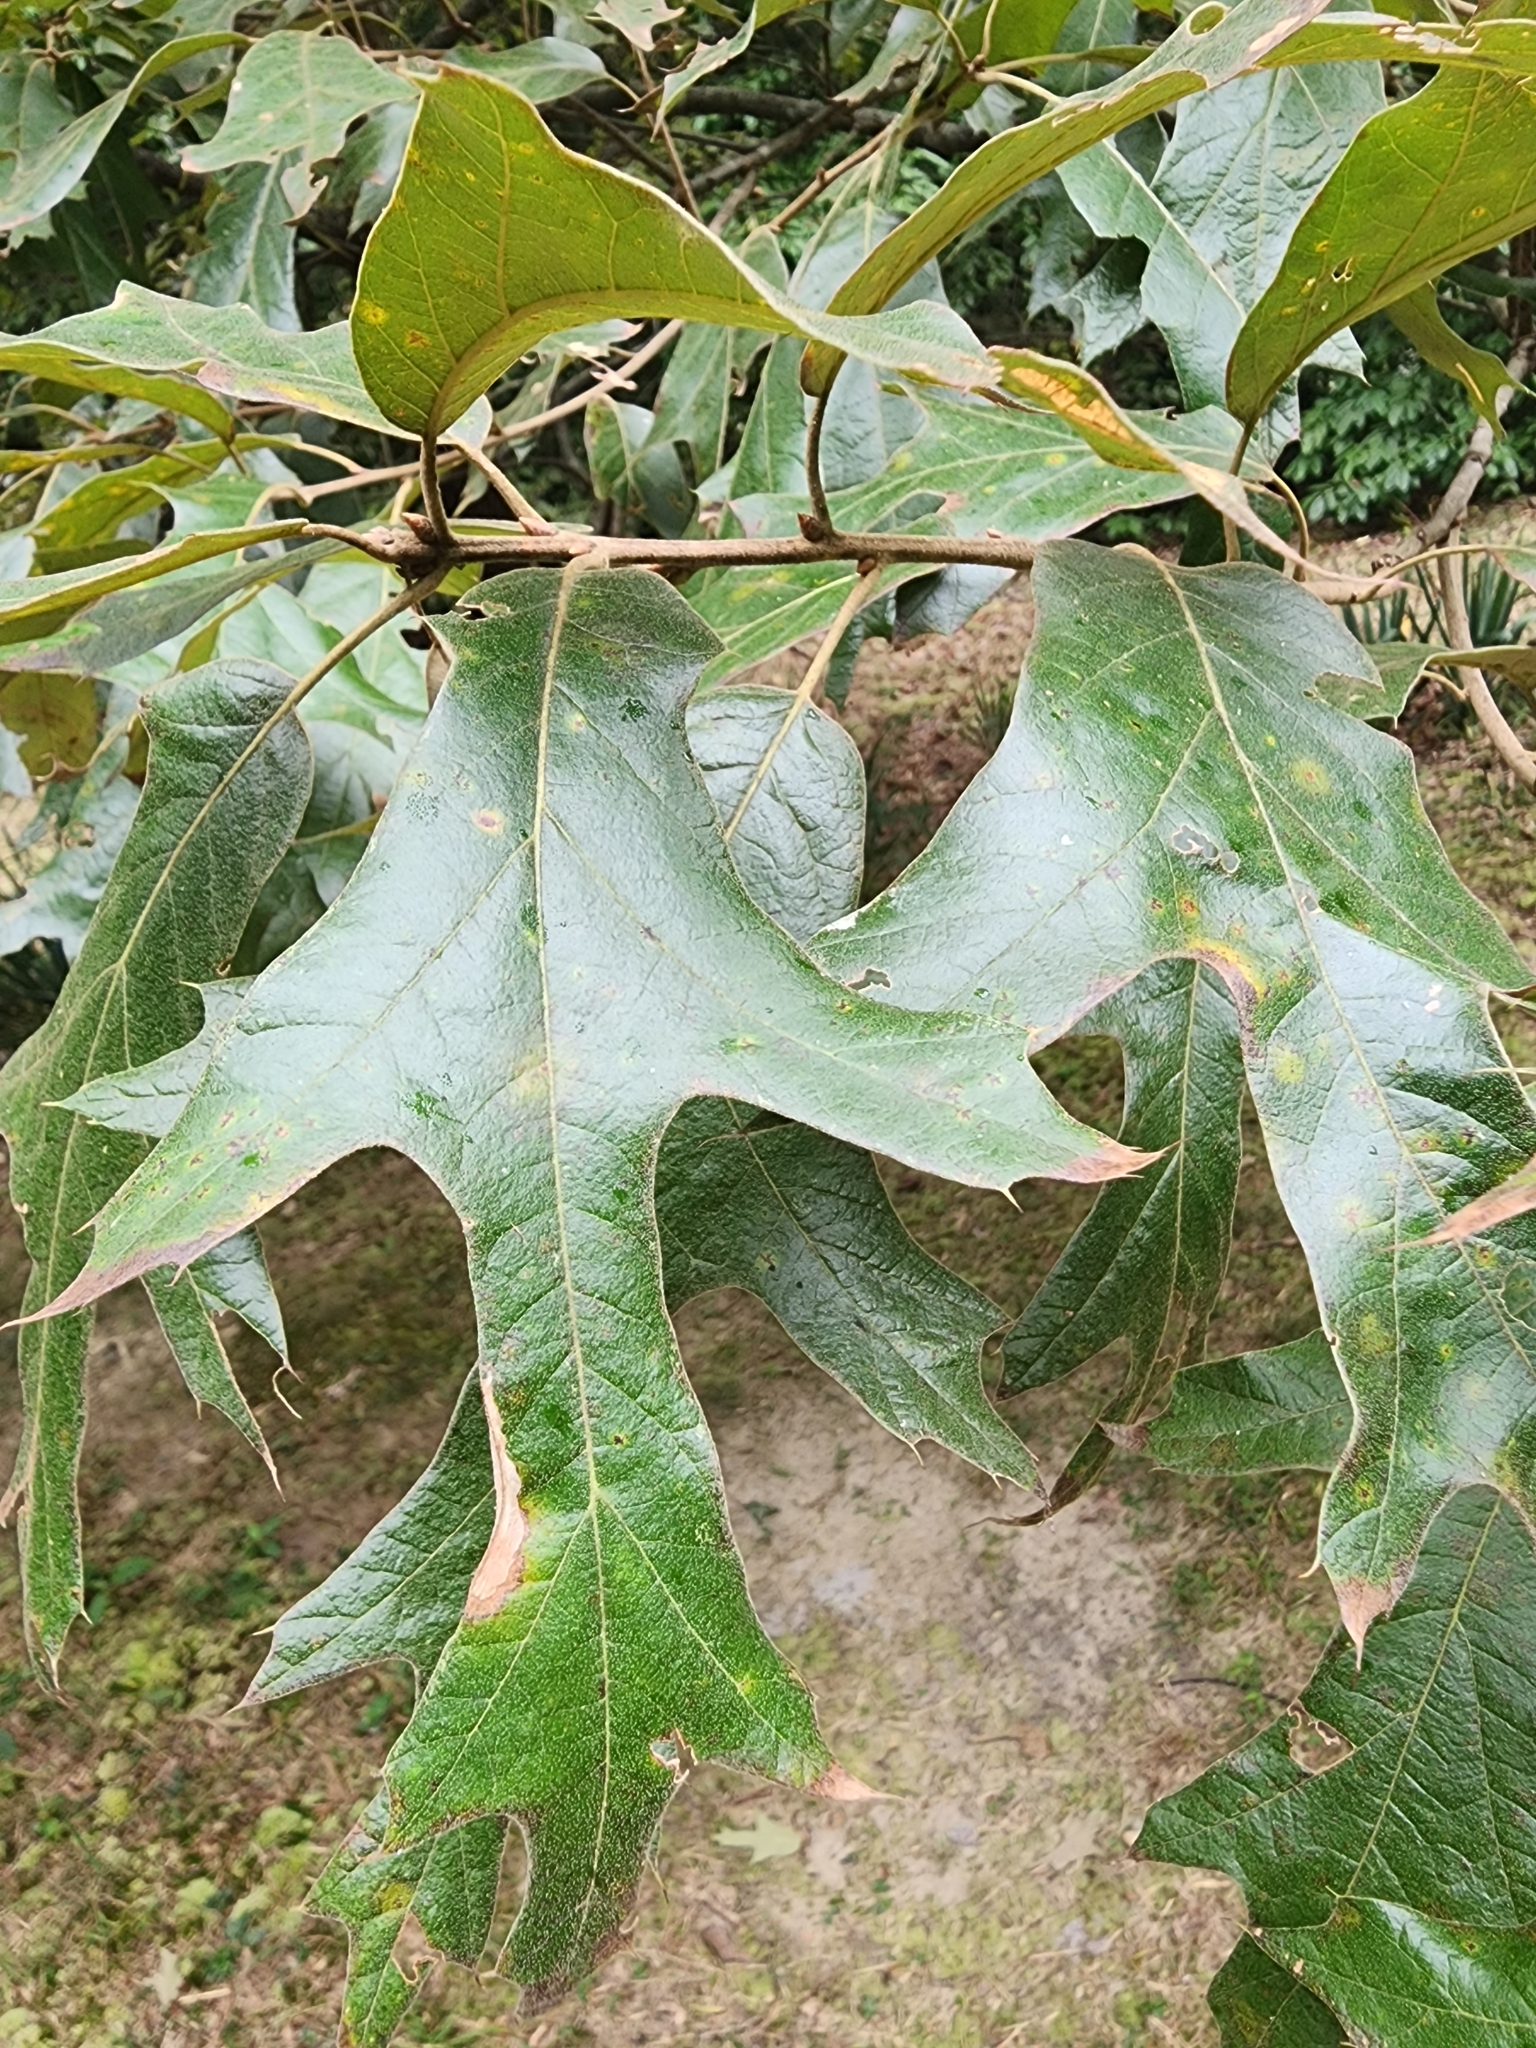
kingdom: Plantae
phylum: Tracheophyta
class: Magnoliopsida
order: Fagales
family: Fagaceae
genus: Quercus
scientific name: Quercus falcata
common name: Southern red oak
